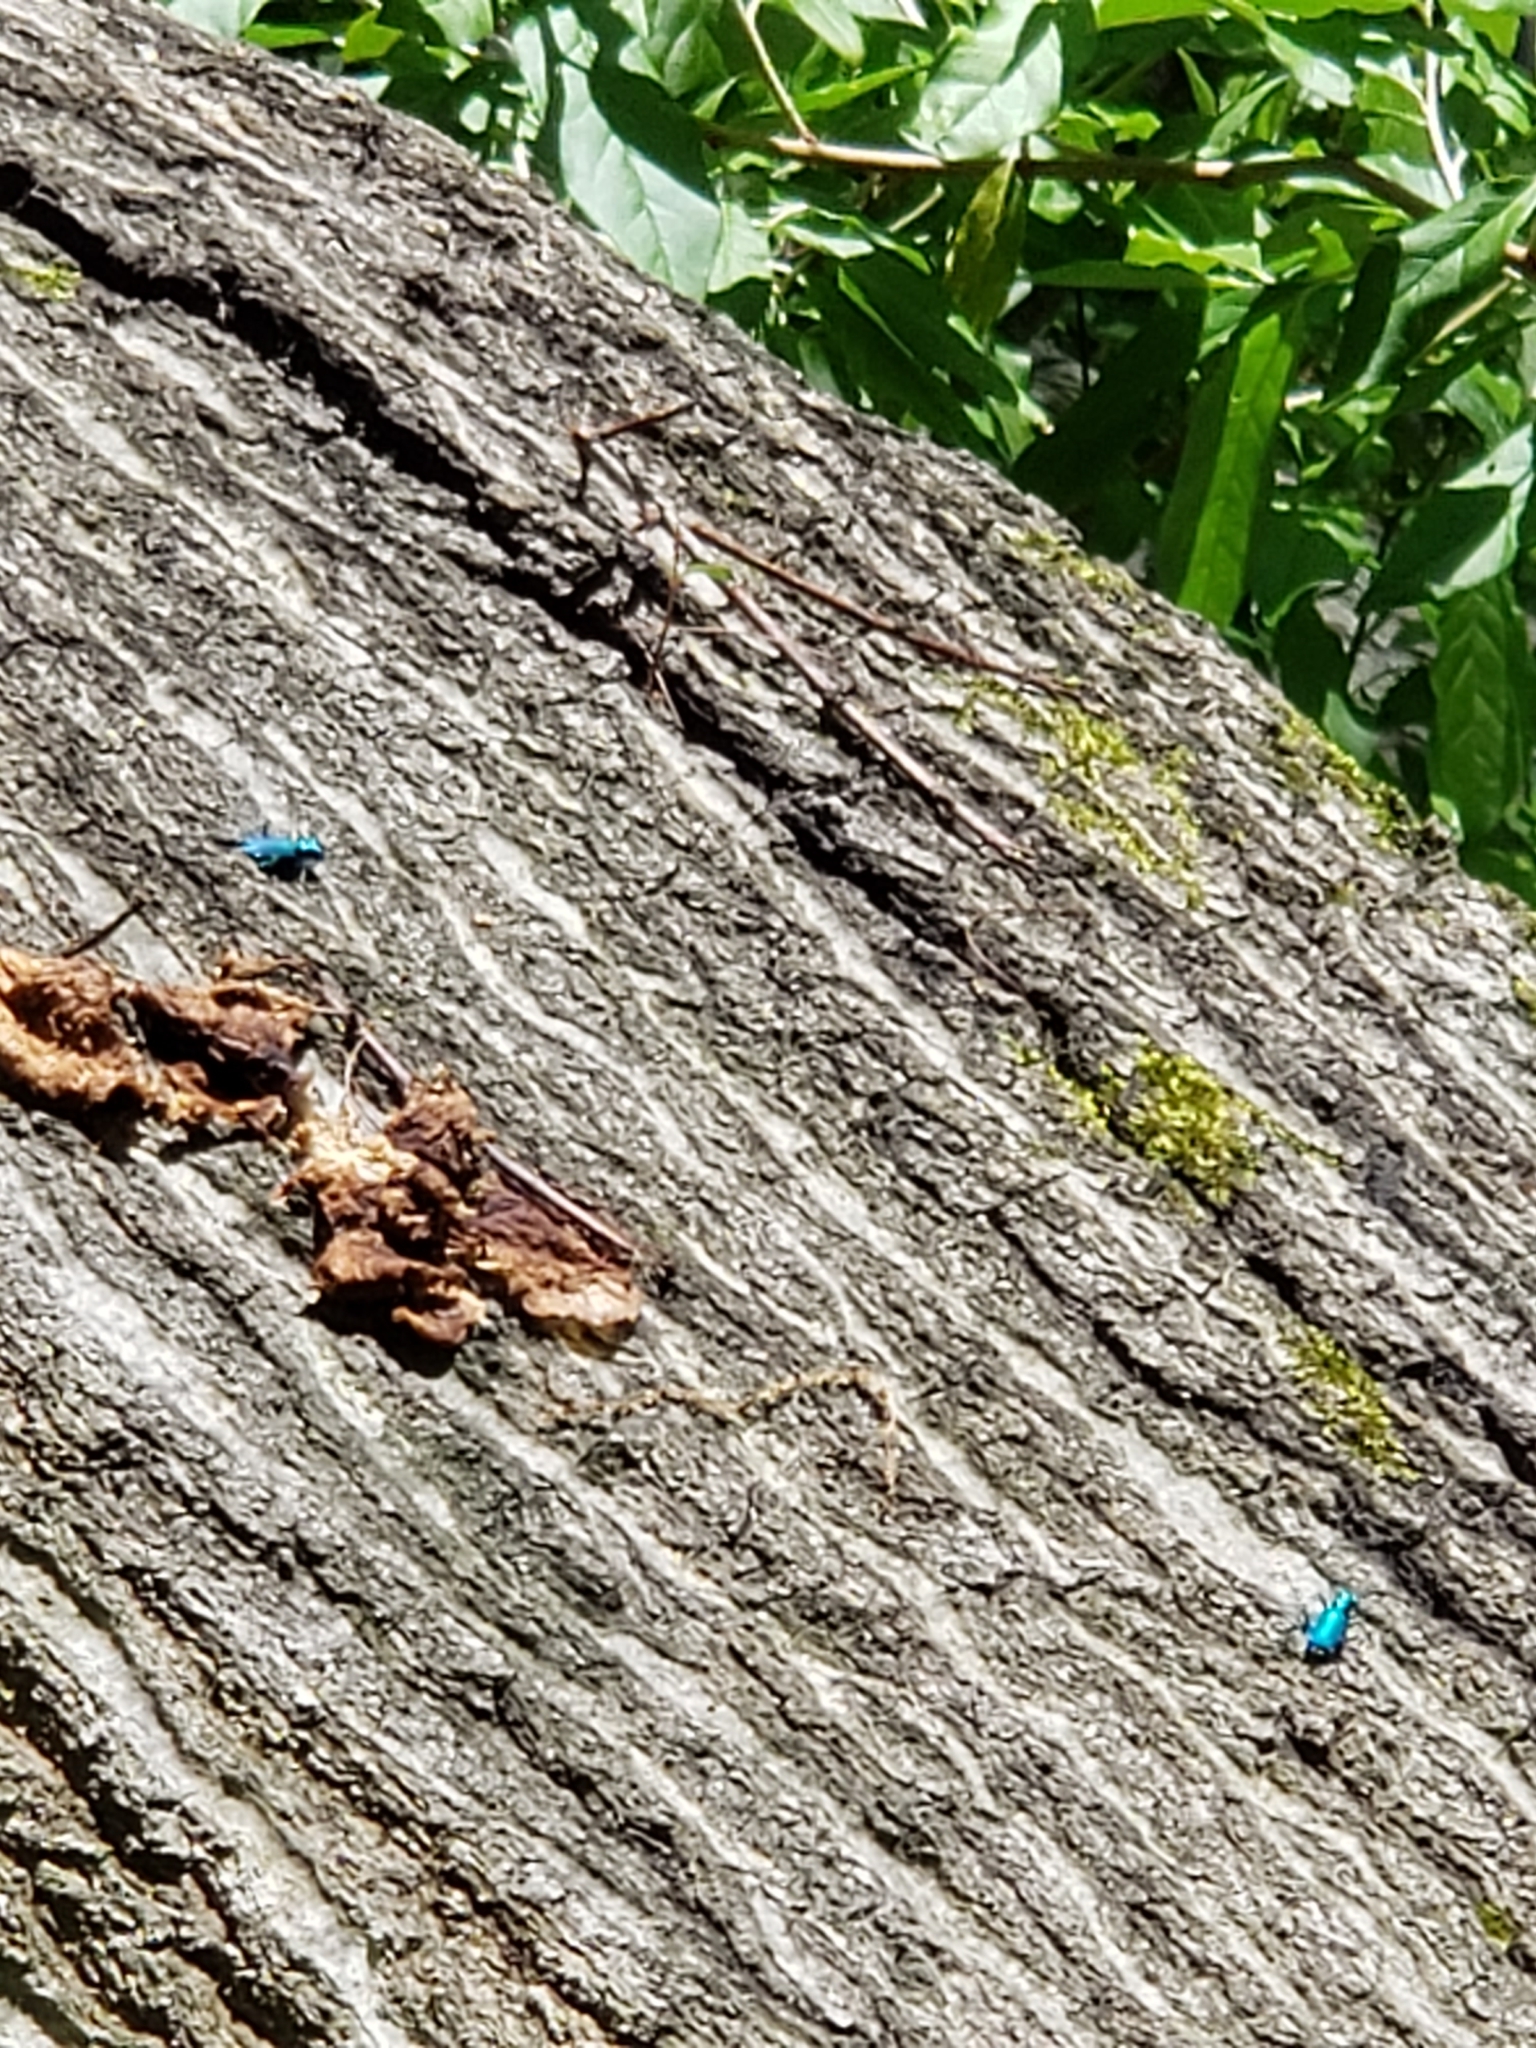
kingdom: Animalia
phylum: Arthropoda
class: Insecta
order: Coleoptera
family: Carabidae
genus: Cicindela
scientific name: Cicindela sexguttata
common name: Six-spotted tiger beetle
